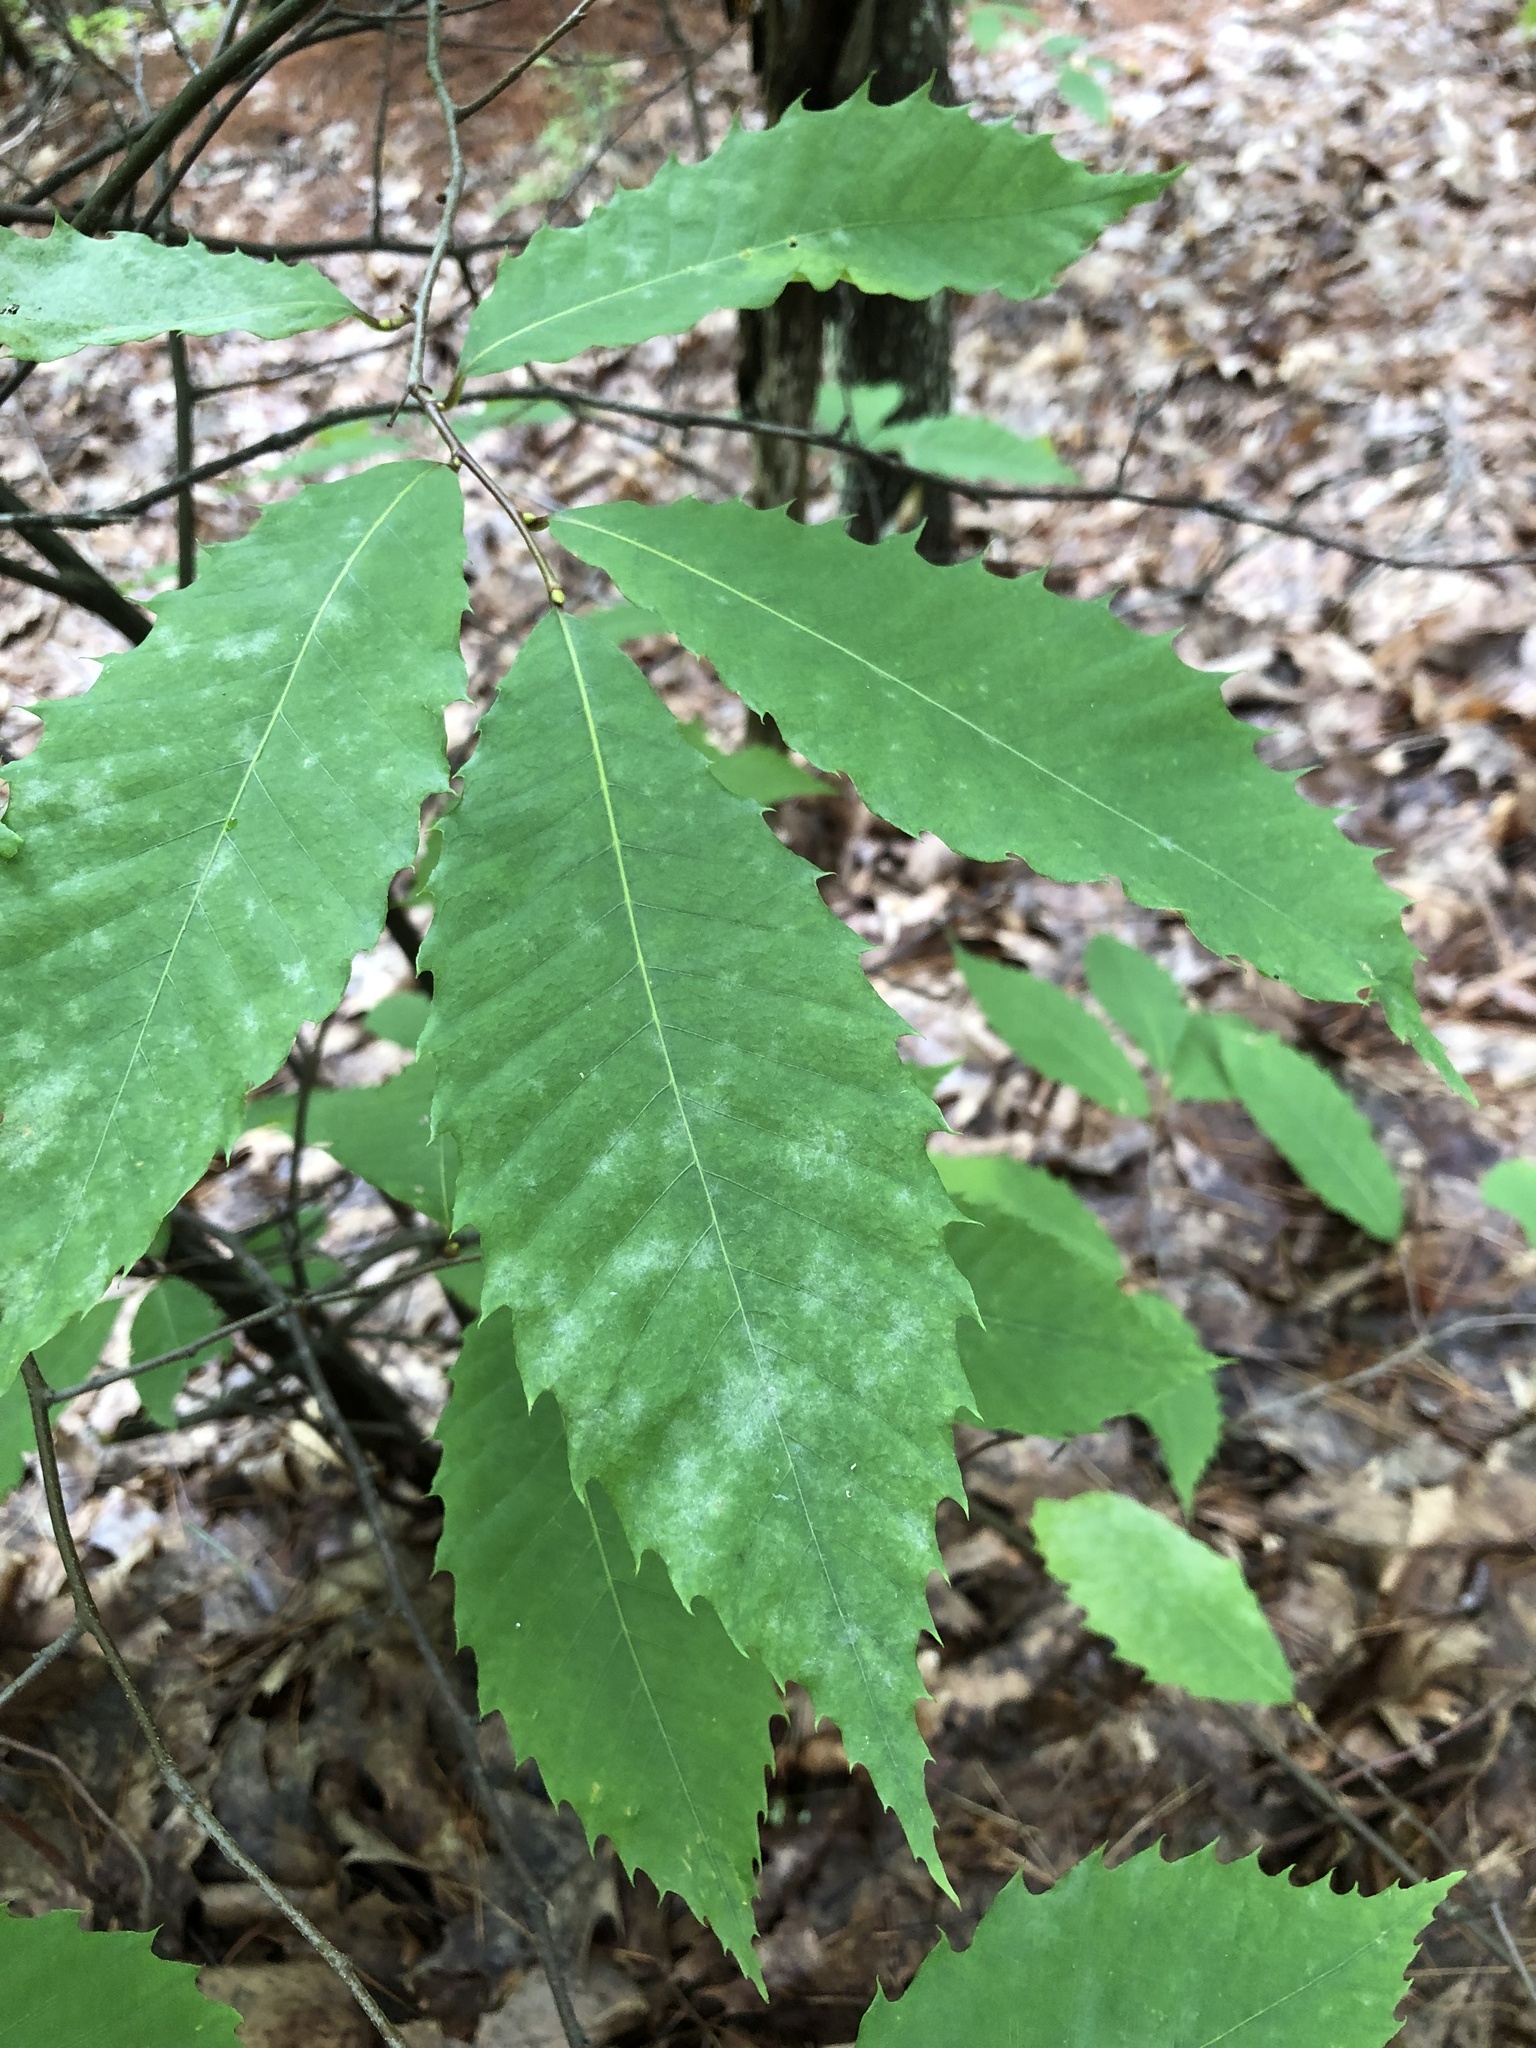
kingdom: Plantae
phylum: Tracheophyta
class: Magnoliopsida
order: Fagales
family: Fagaceae
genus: Castanea
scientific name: Castanea dentata
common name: American chestnut
